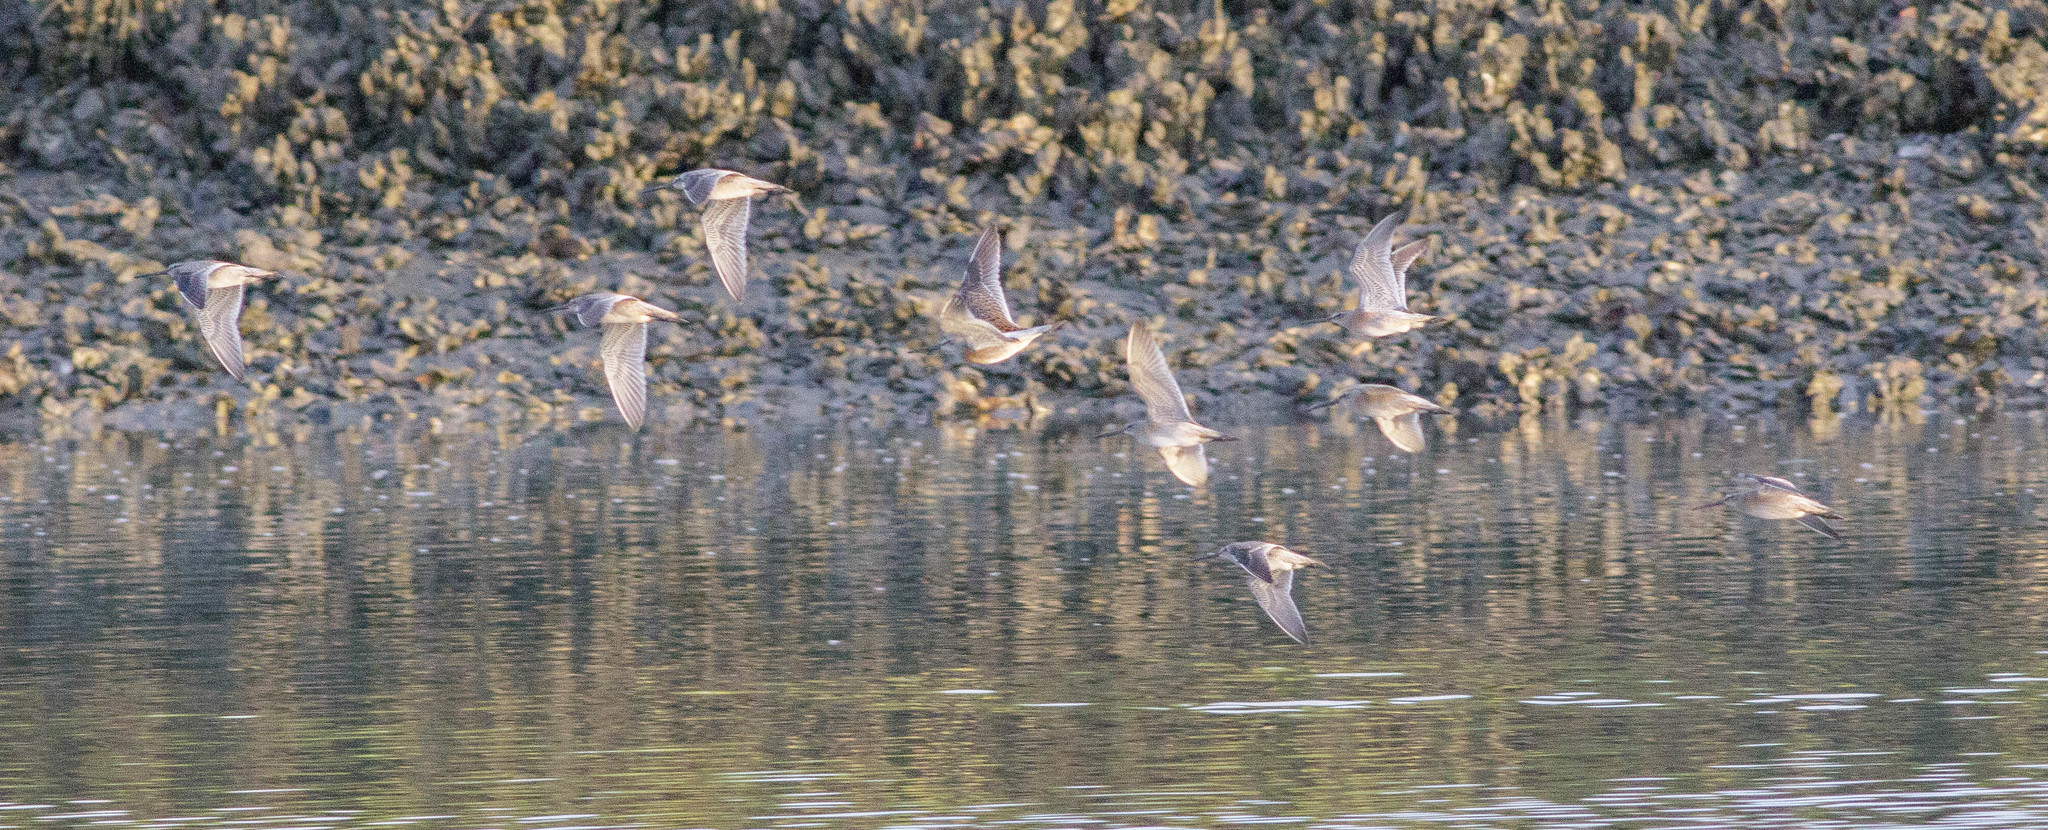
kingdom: Animalia
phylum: Chordata
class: Aves
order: Charadriiformes
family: Scolopacidae
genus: Limnodromus
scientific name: Limnodromus griseus
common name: Short-billed dowitcher
